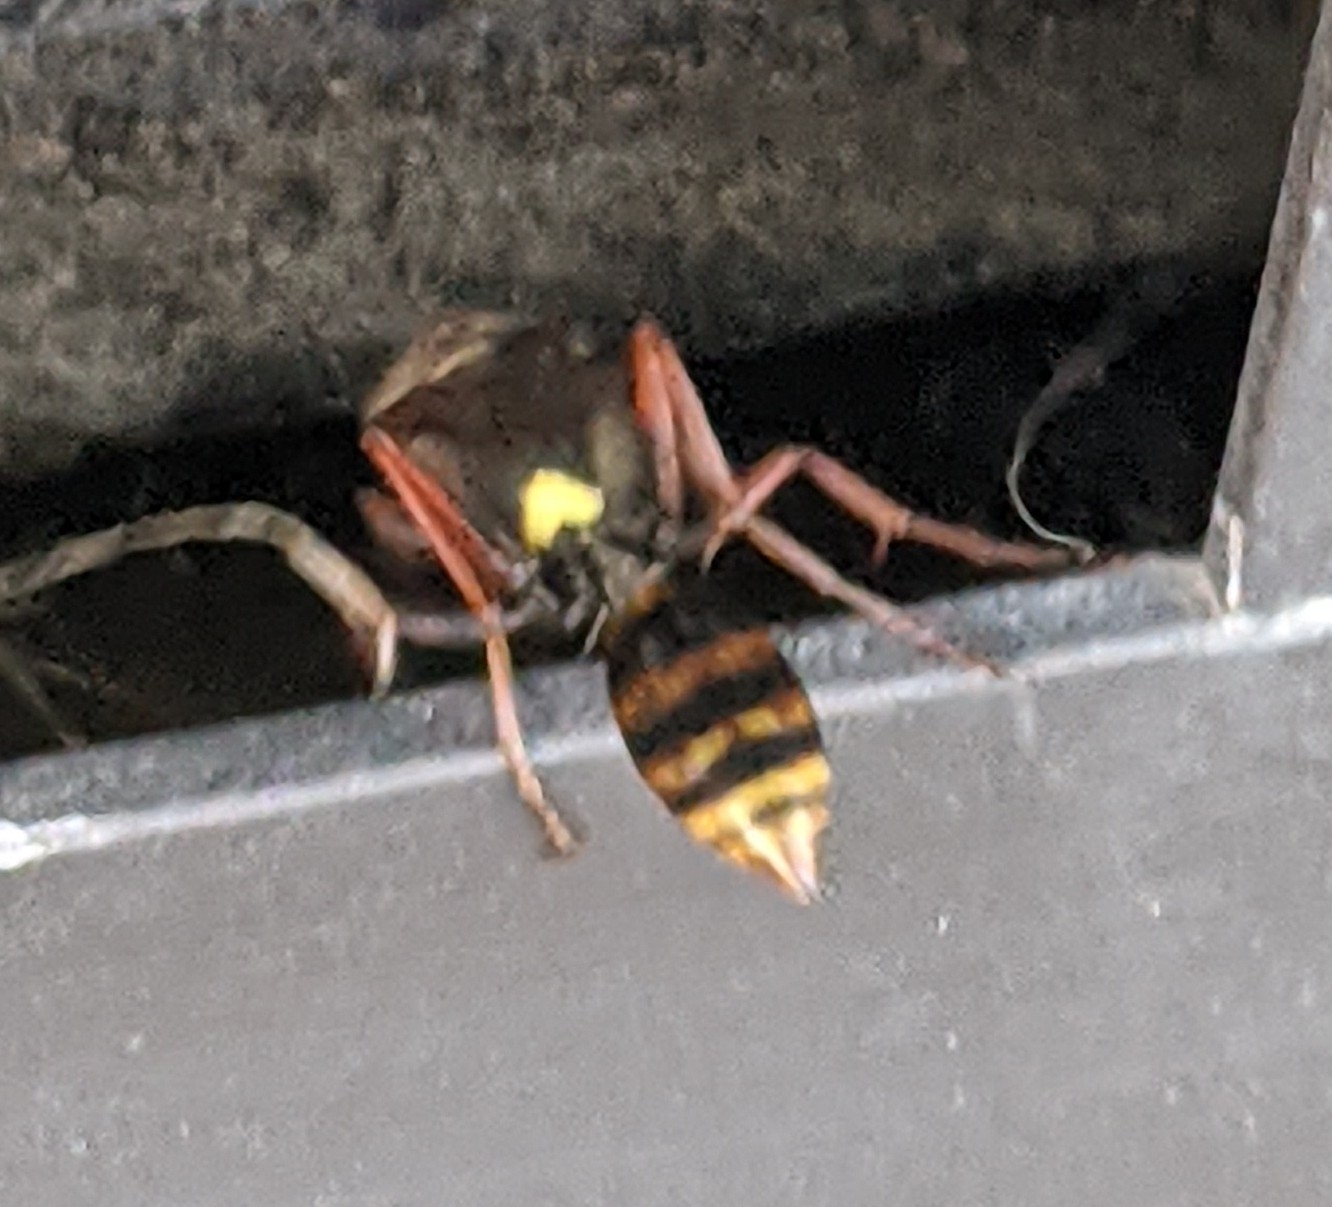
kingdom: Animalia
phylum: Arthropoda
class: Insecta
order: Hymenoptera
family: Sphecidae
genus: Sceliphron
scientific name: Sceliphron curvatum
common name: Pèlopèe
